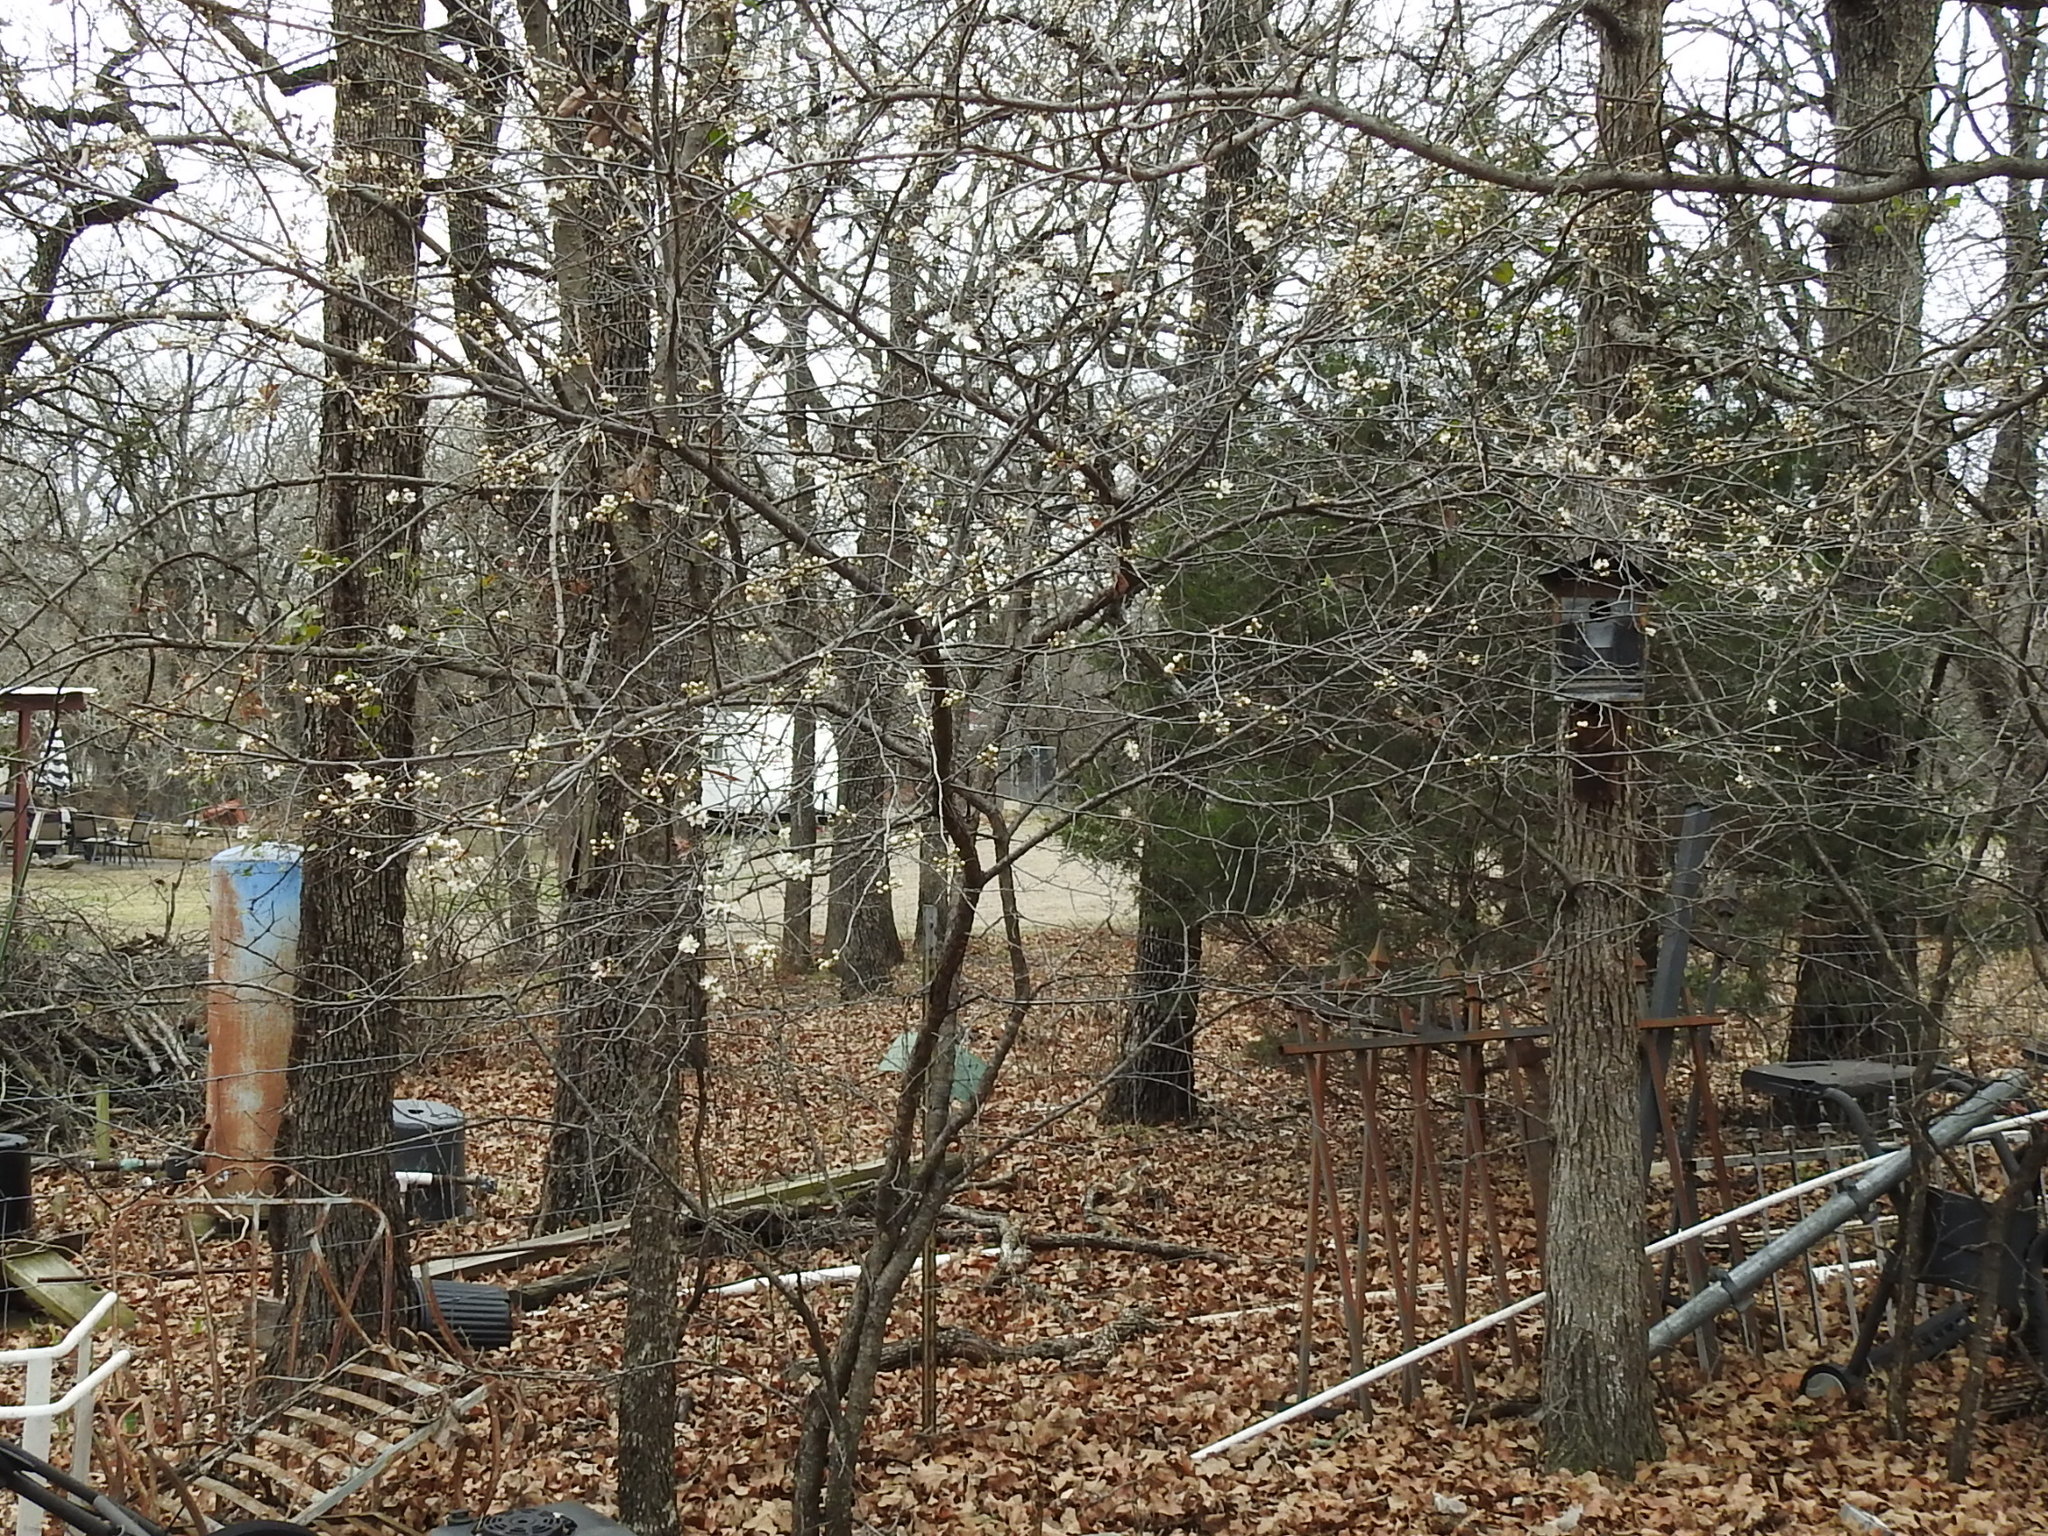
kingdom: Plantae
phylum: Tracheophyta
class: Magnoliopsida
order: Rosales
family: Rosaceae
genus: Prunus
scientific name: Prunus mexicana
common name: Mexican plum
